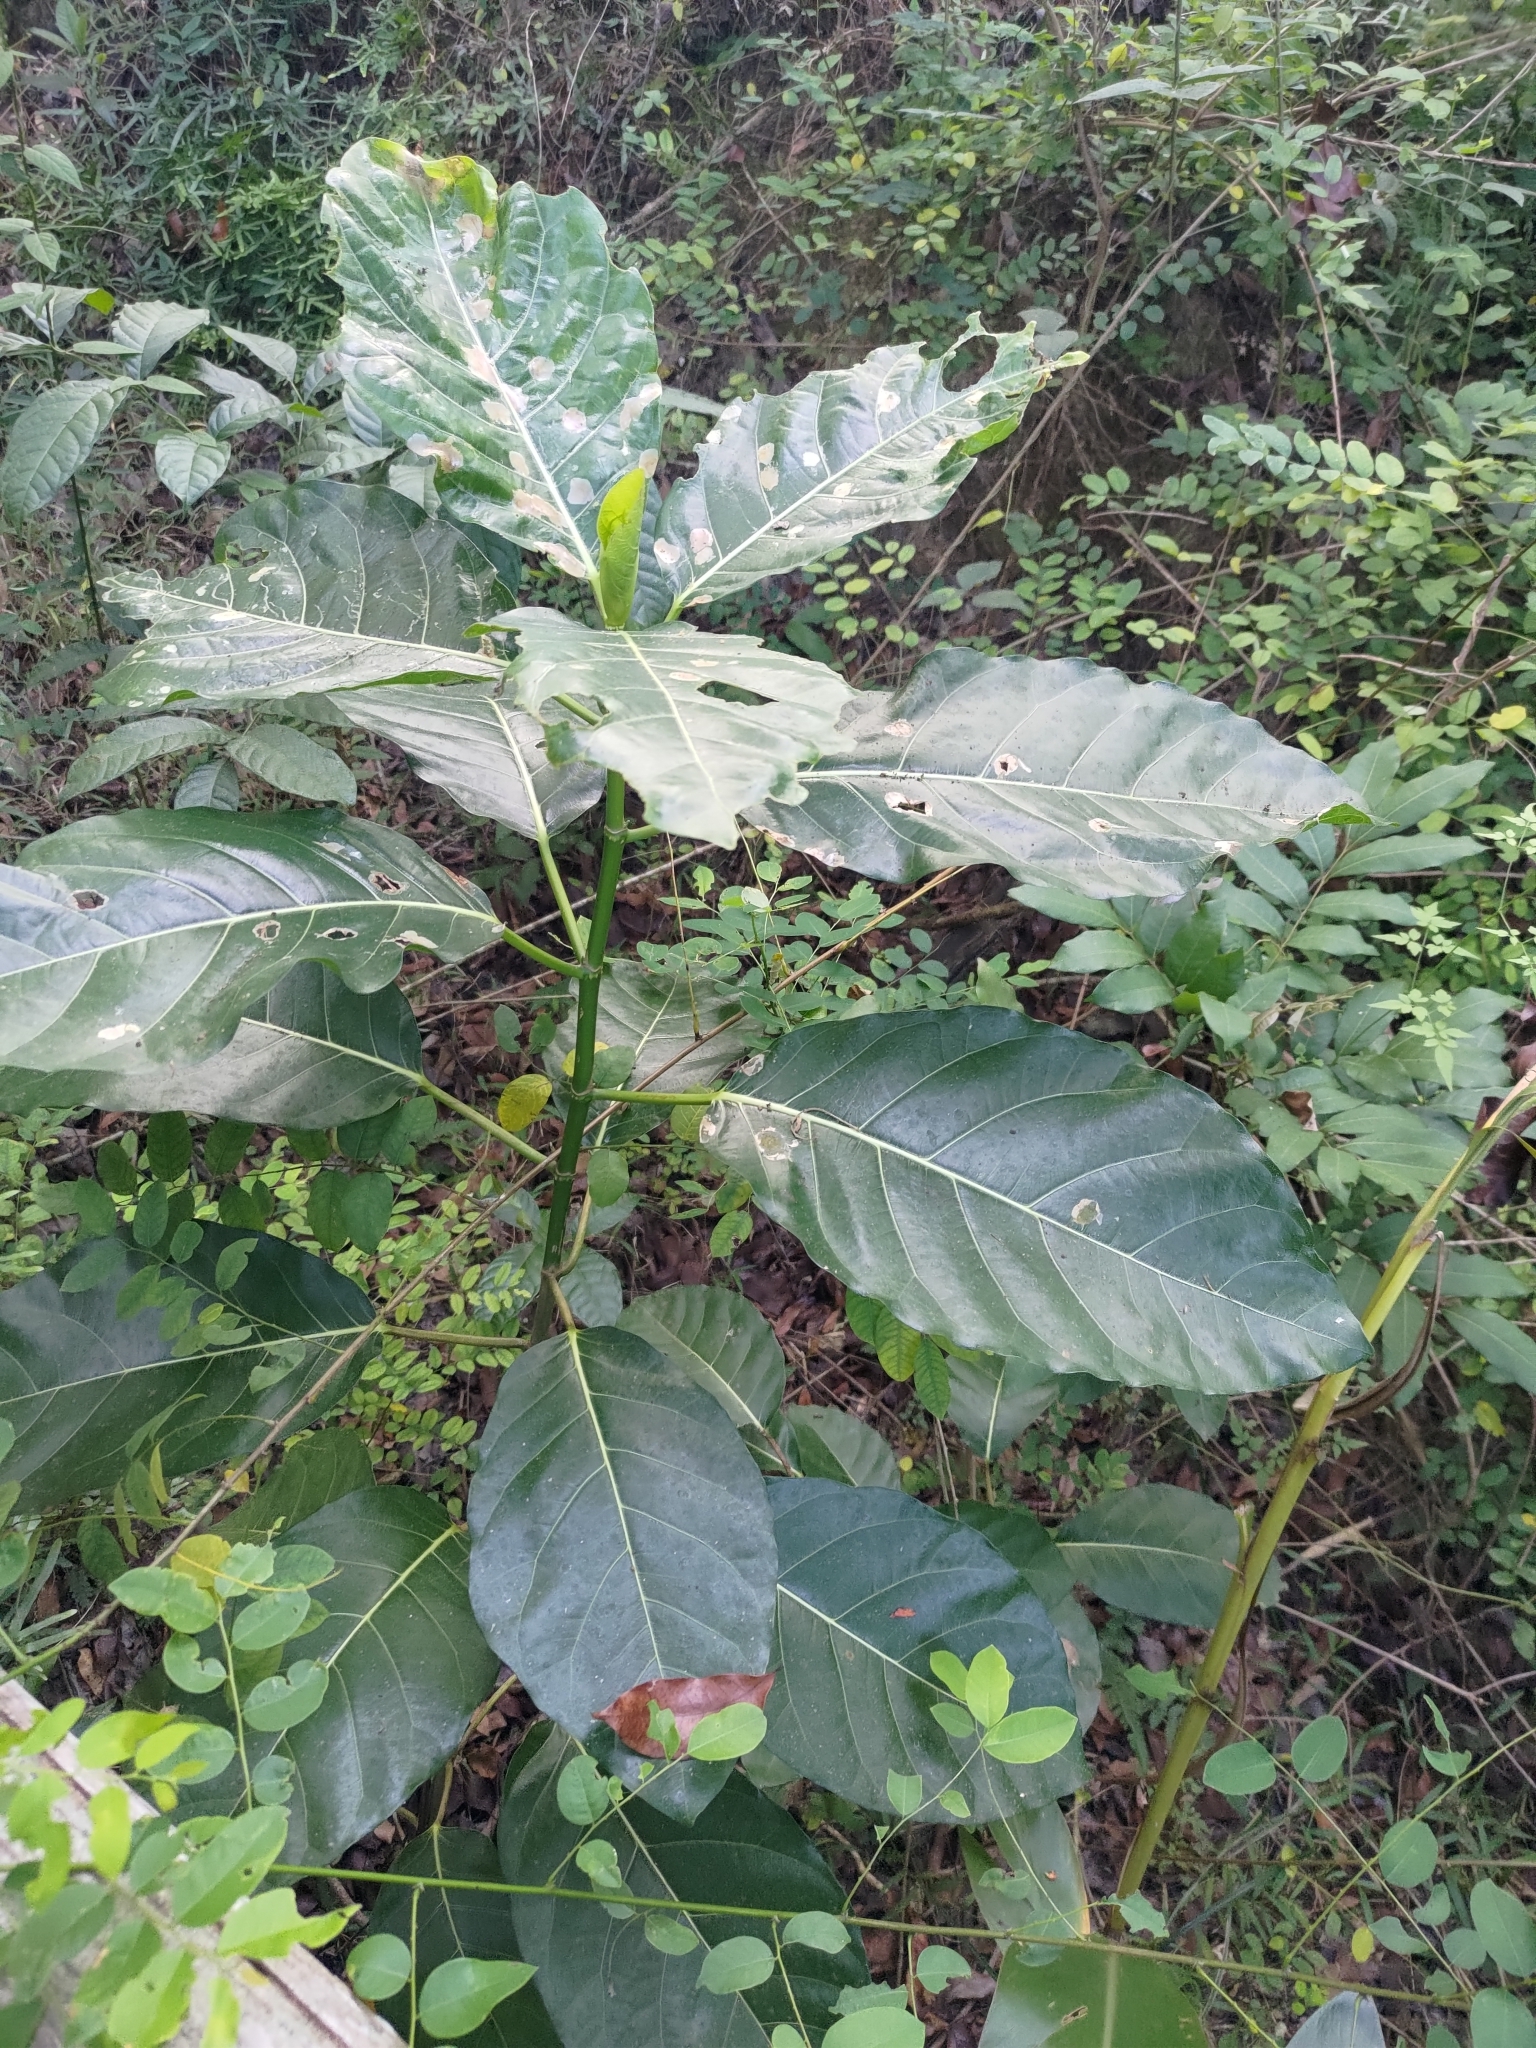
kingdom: Plantae
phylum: Tracheophyta
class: Magnoliopsida
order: Rosales
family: Moraceae
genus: Ficus
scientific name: Ficus septica
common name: Septic fig
